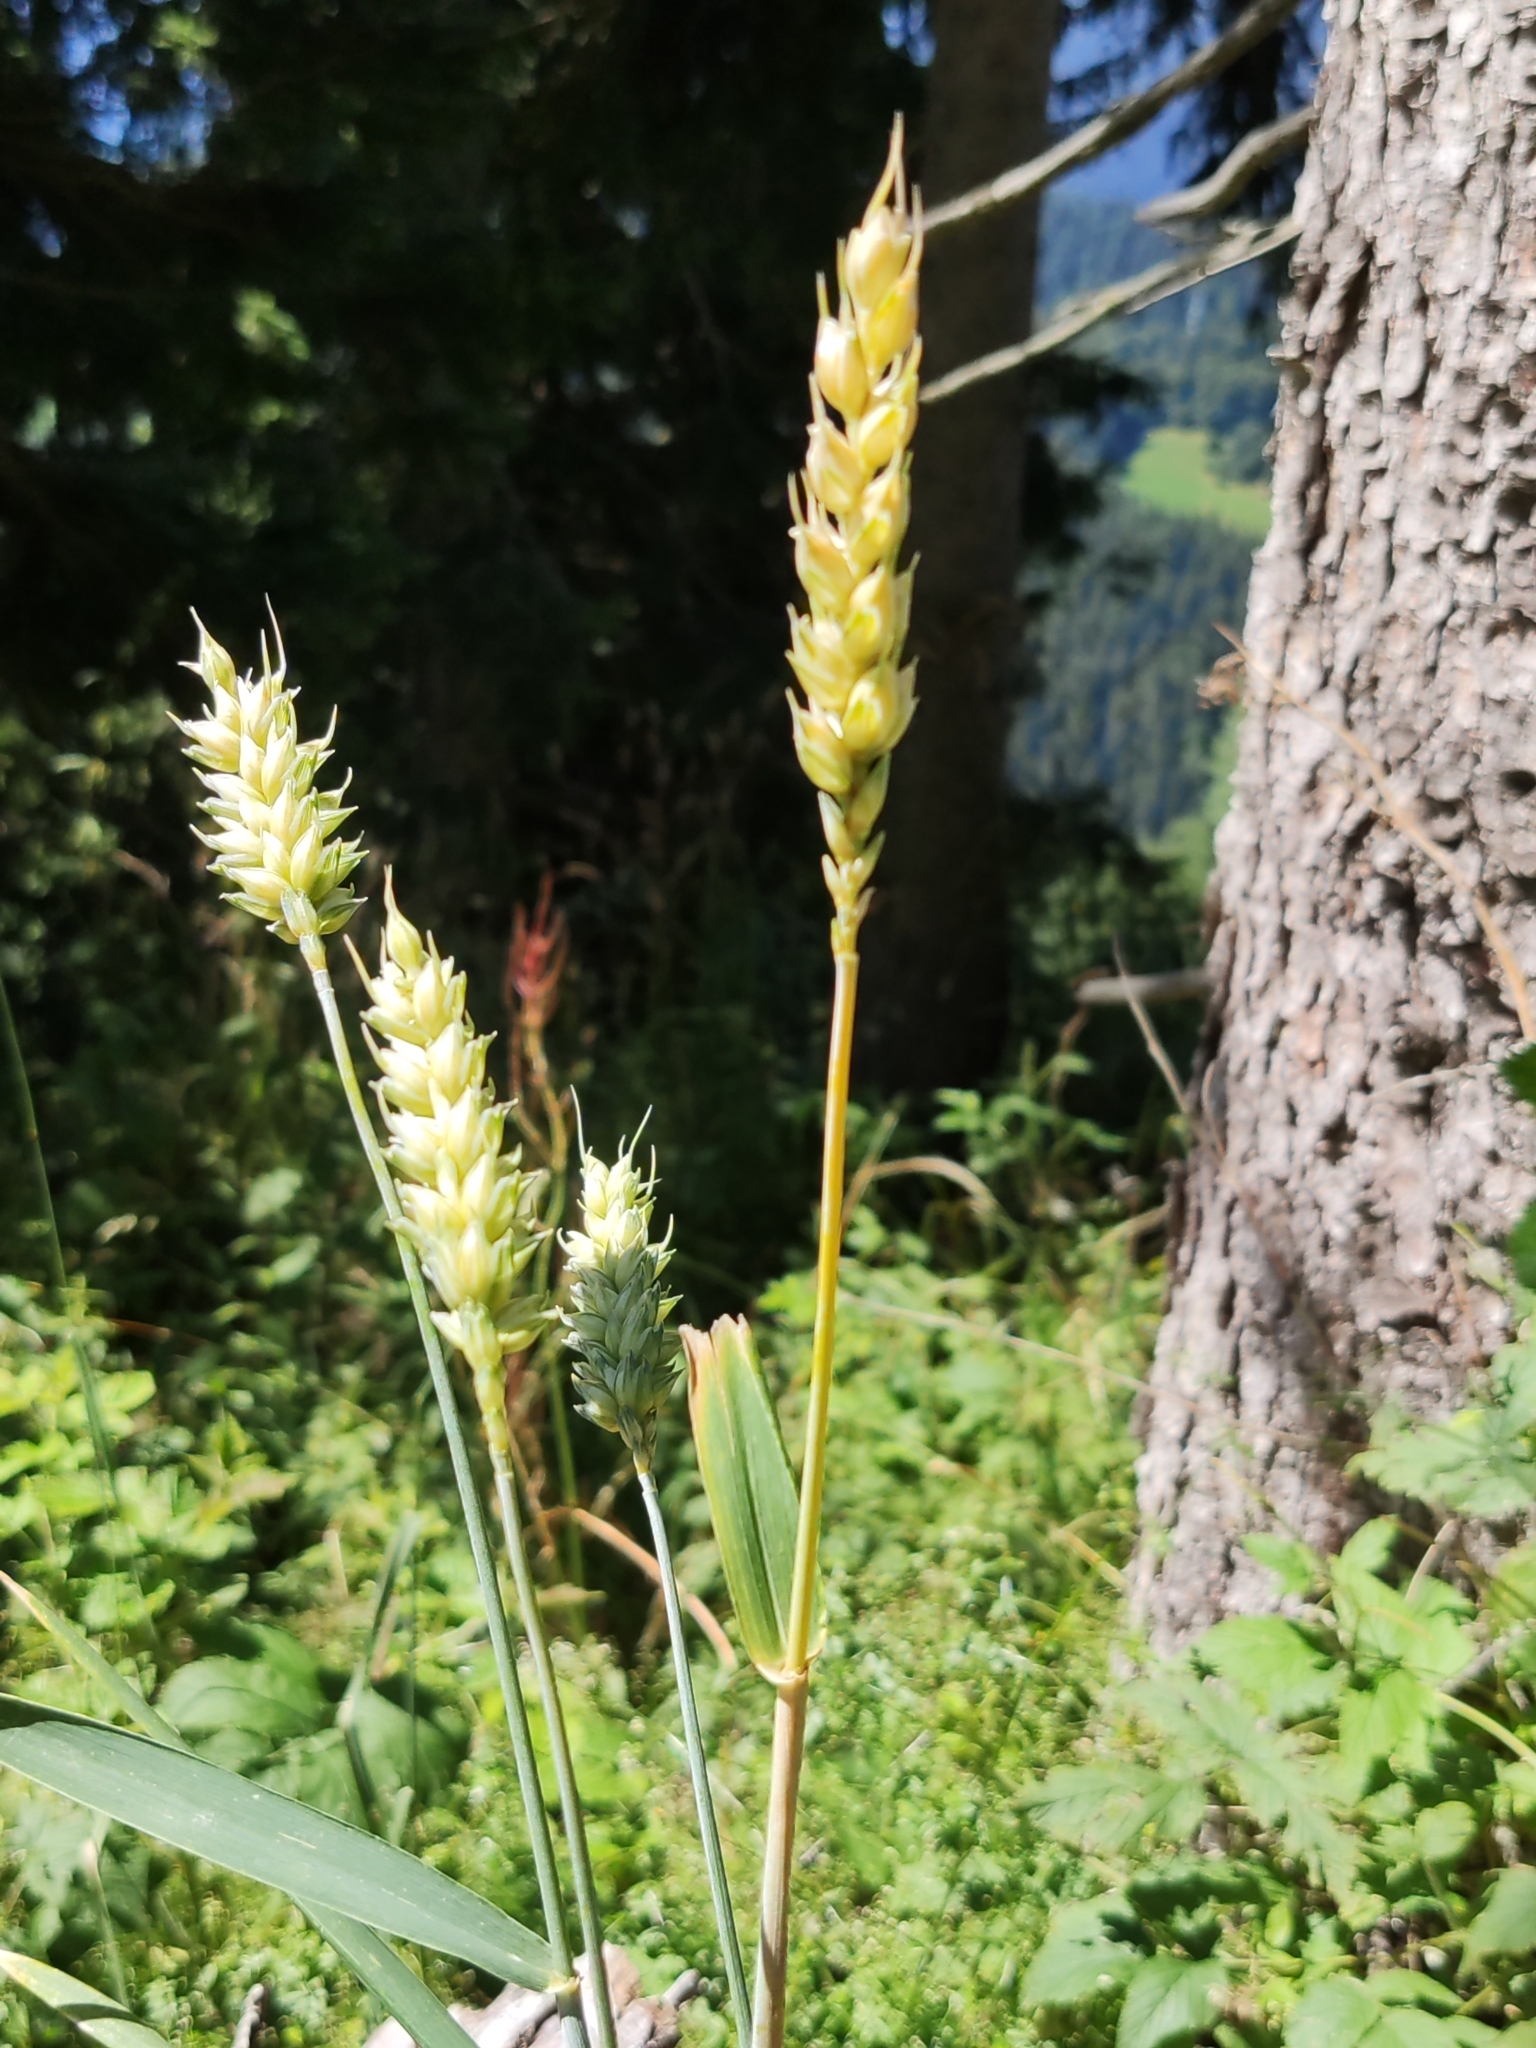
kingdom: Plantae
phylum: Tracheophyta
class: Liliopsida
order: Poales
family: Poaceae
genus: Triticum
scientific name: Triticum aestivum
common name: Common wheat
